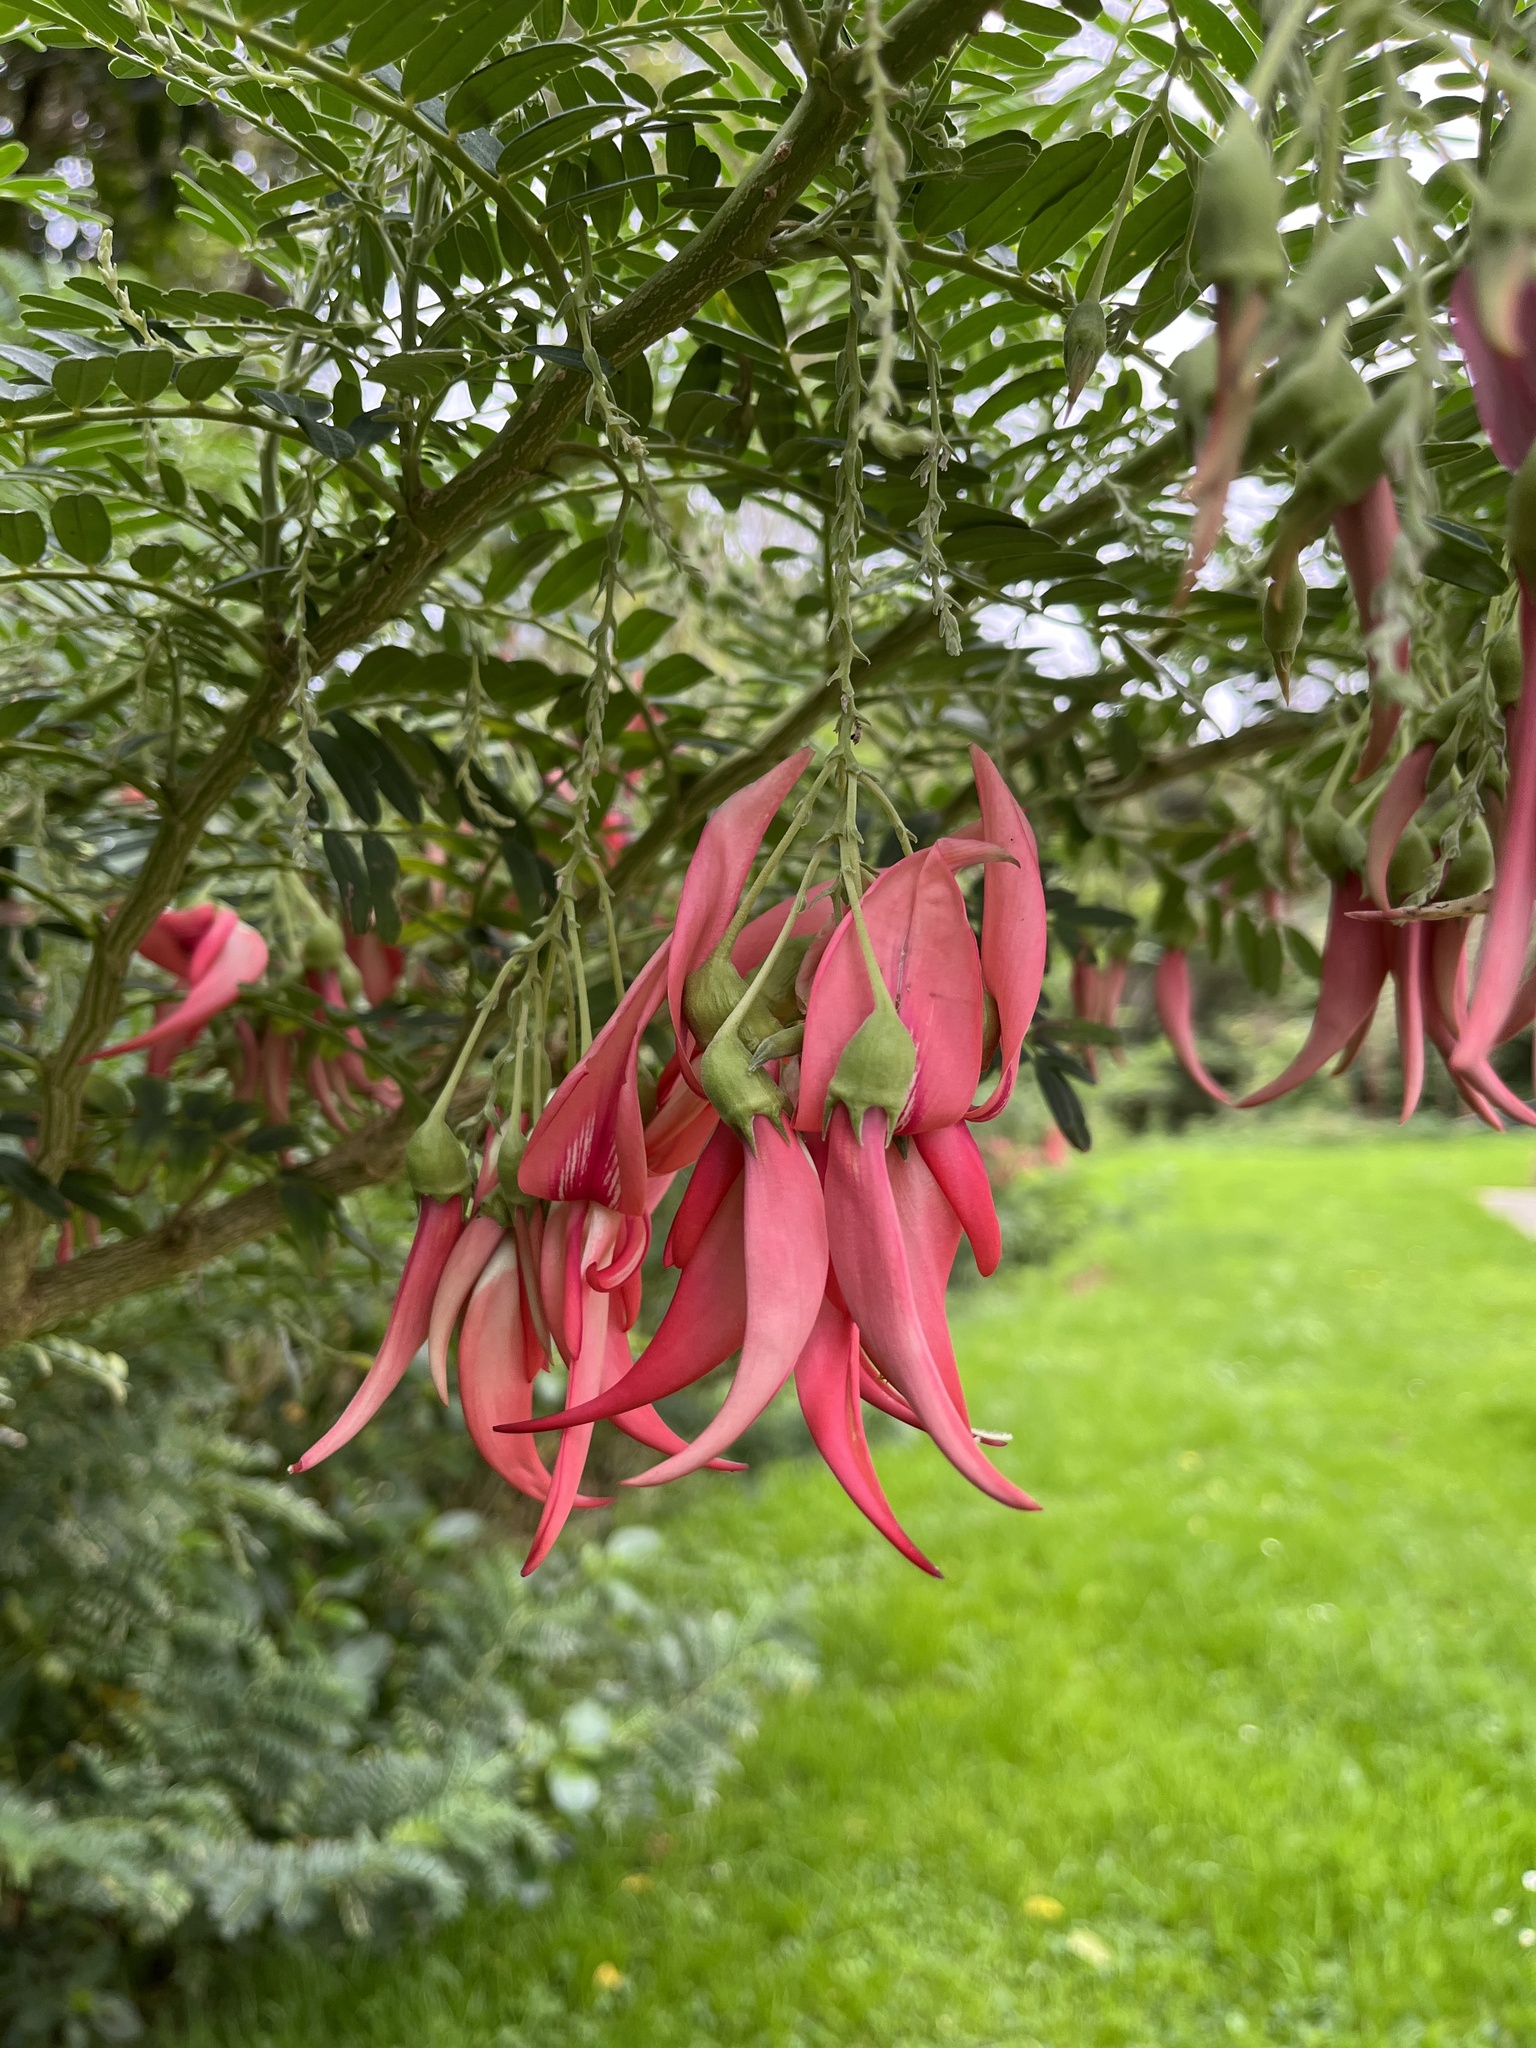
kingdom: Plantae
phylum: Tracheophyta
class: Magnoliopsida
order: Fabales
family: Fabaceae
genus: Clianthus
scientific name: Clianthus puniceus
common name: Kaka-beak
